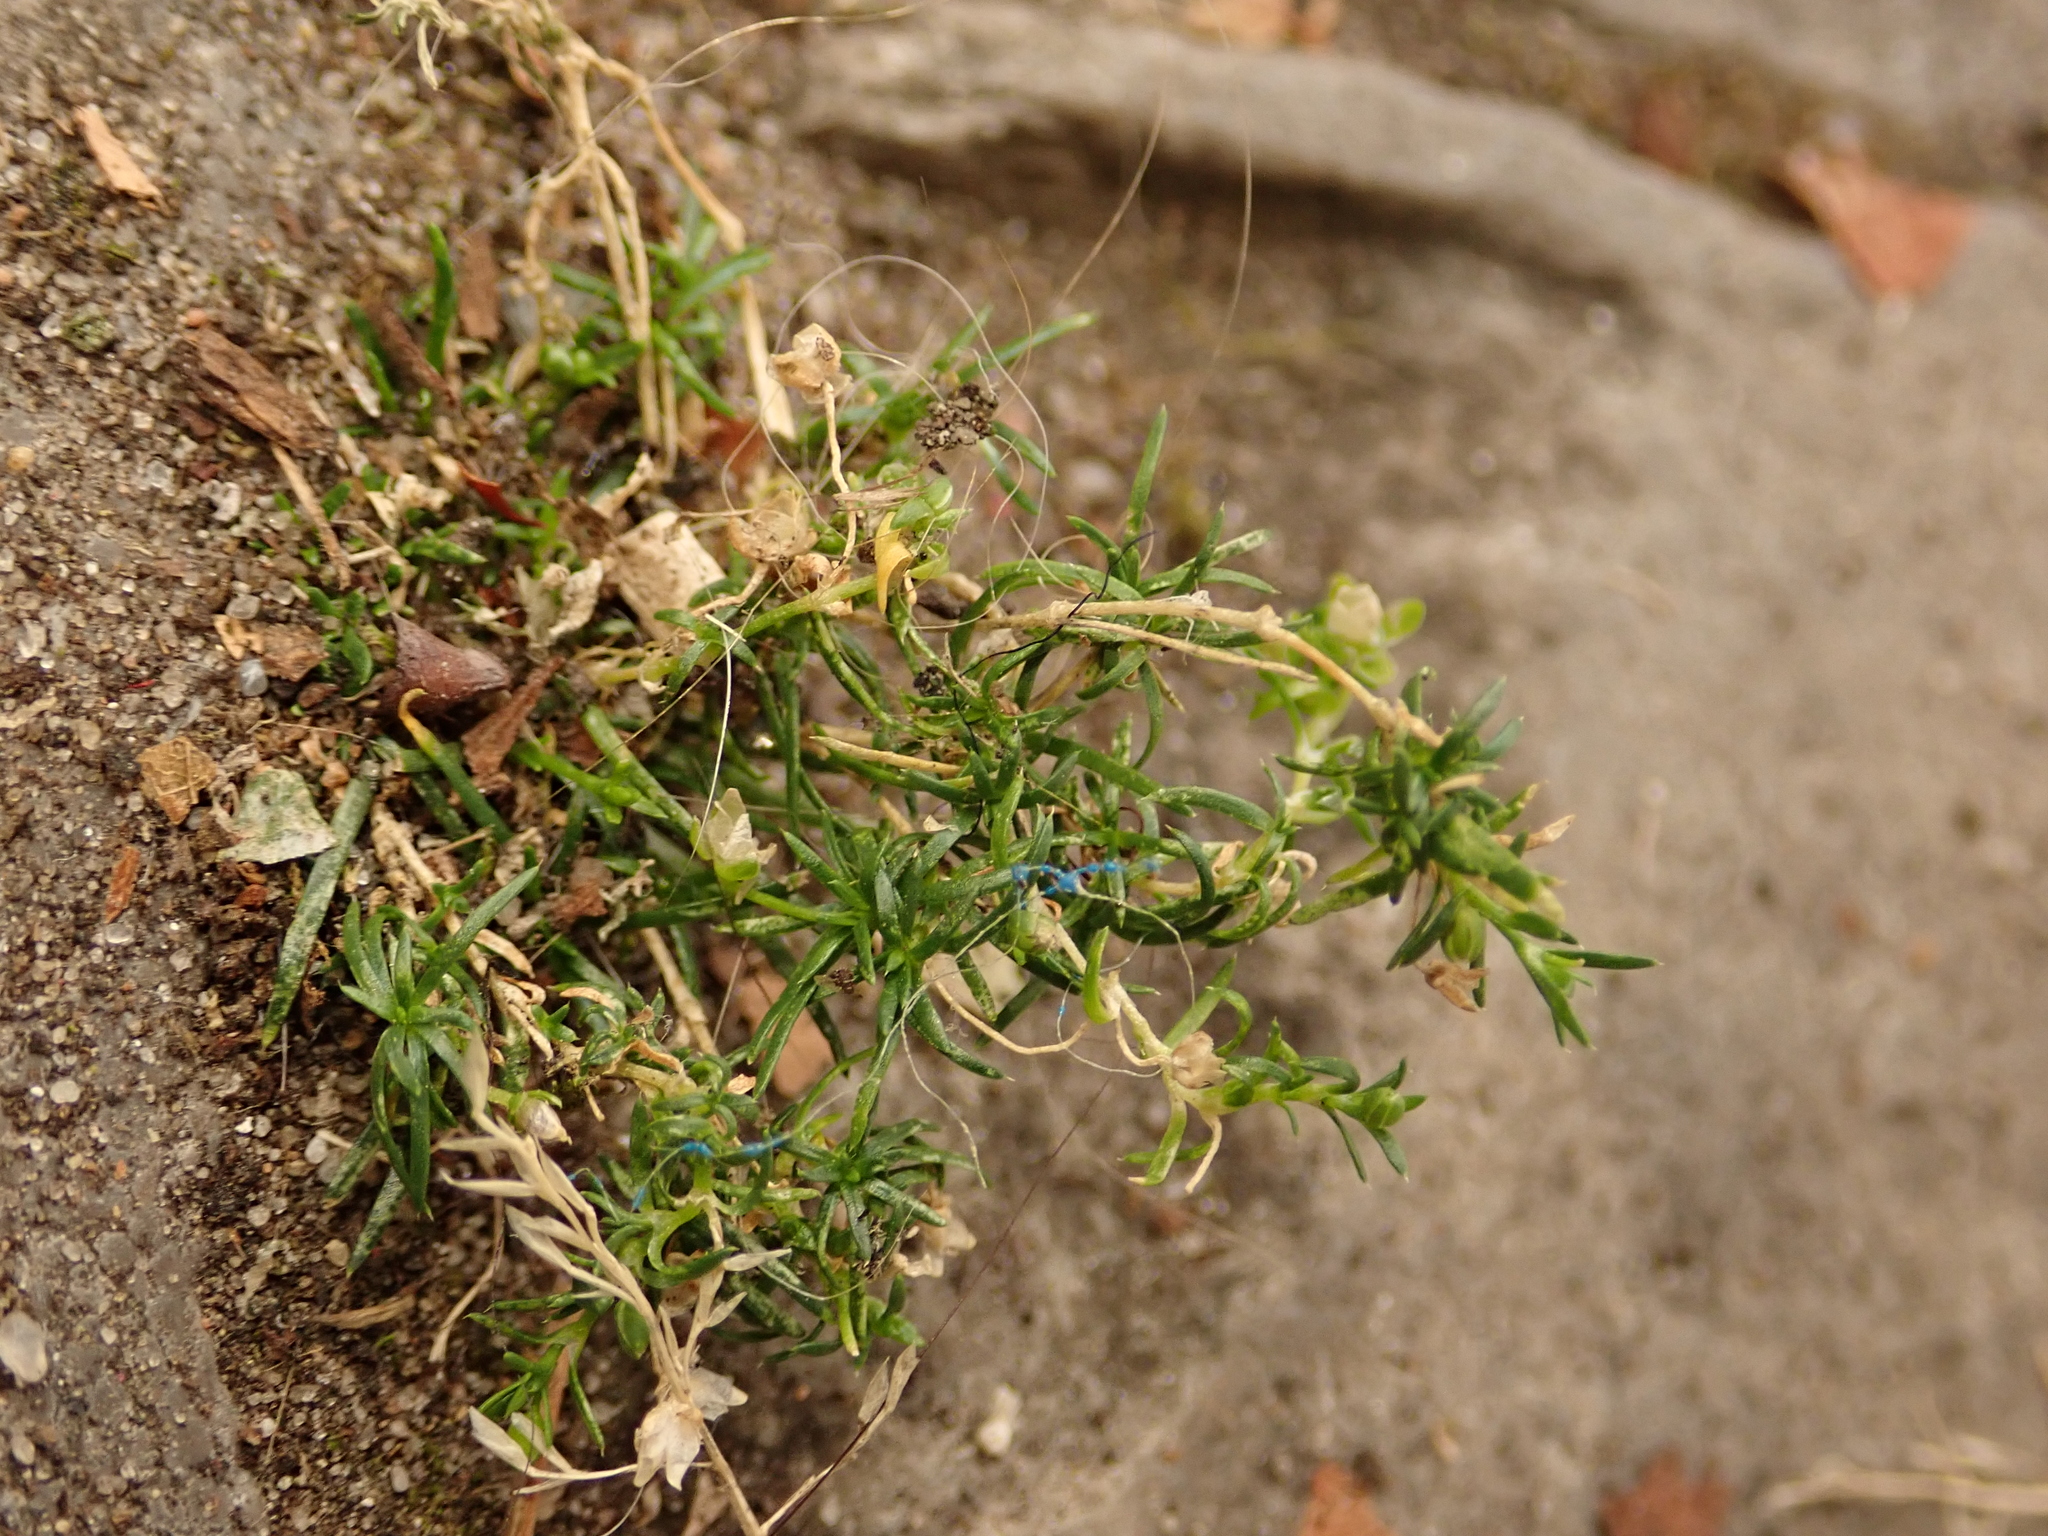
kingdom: Plantae
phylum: Tracheophyta
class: Magnoliopsida
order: Caryophyllales
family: Caryophyllaceae
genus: Sagina
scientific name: Sagina procumbens
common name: Procumbent pearlwort
